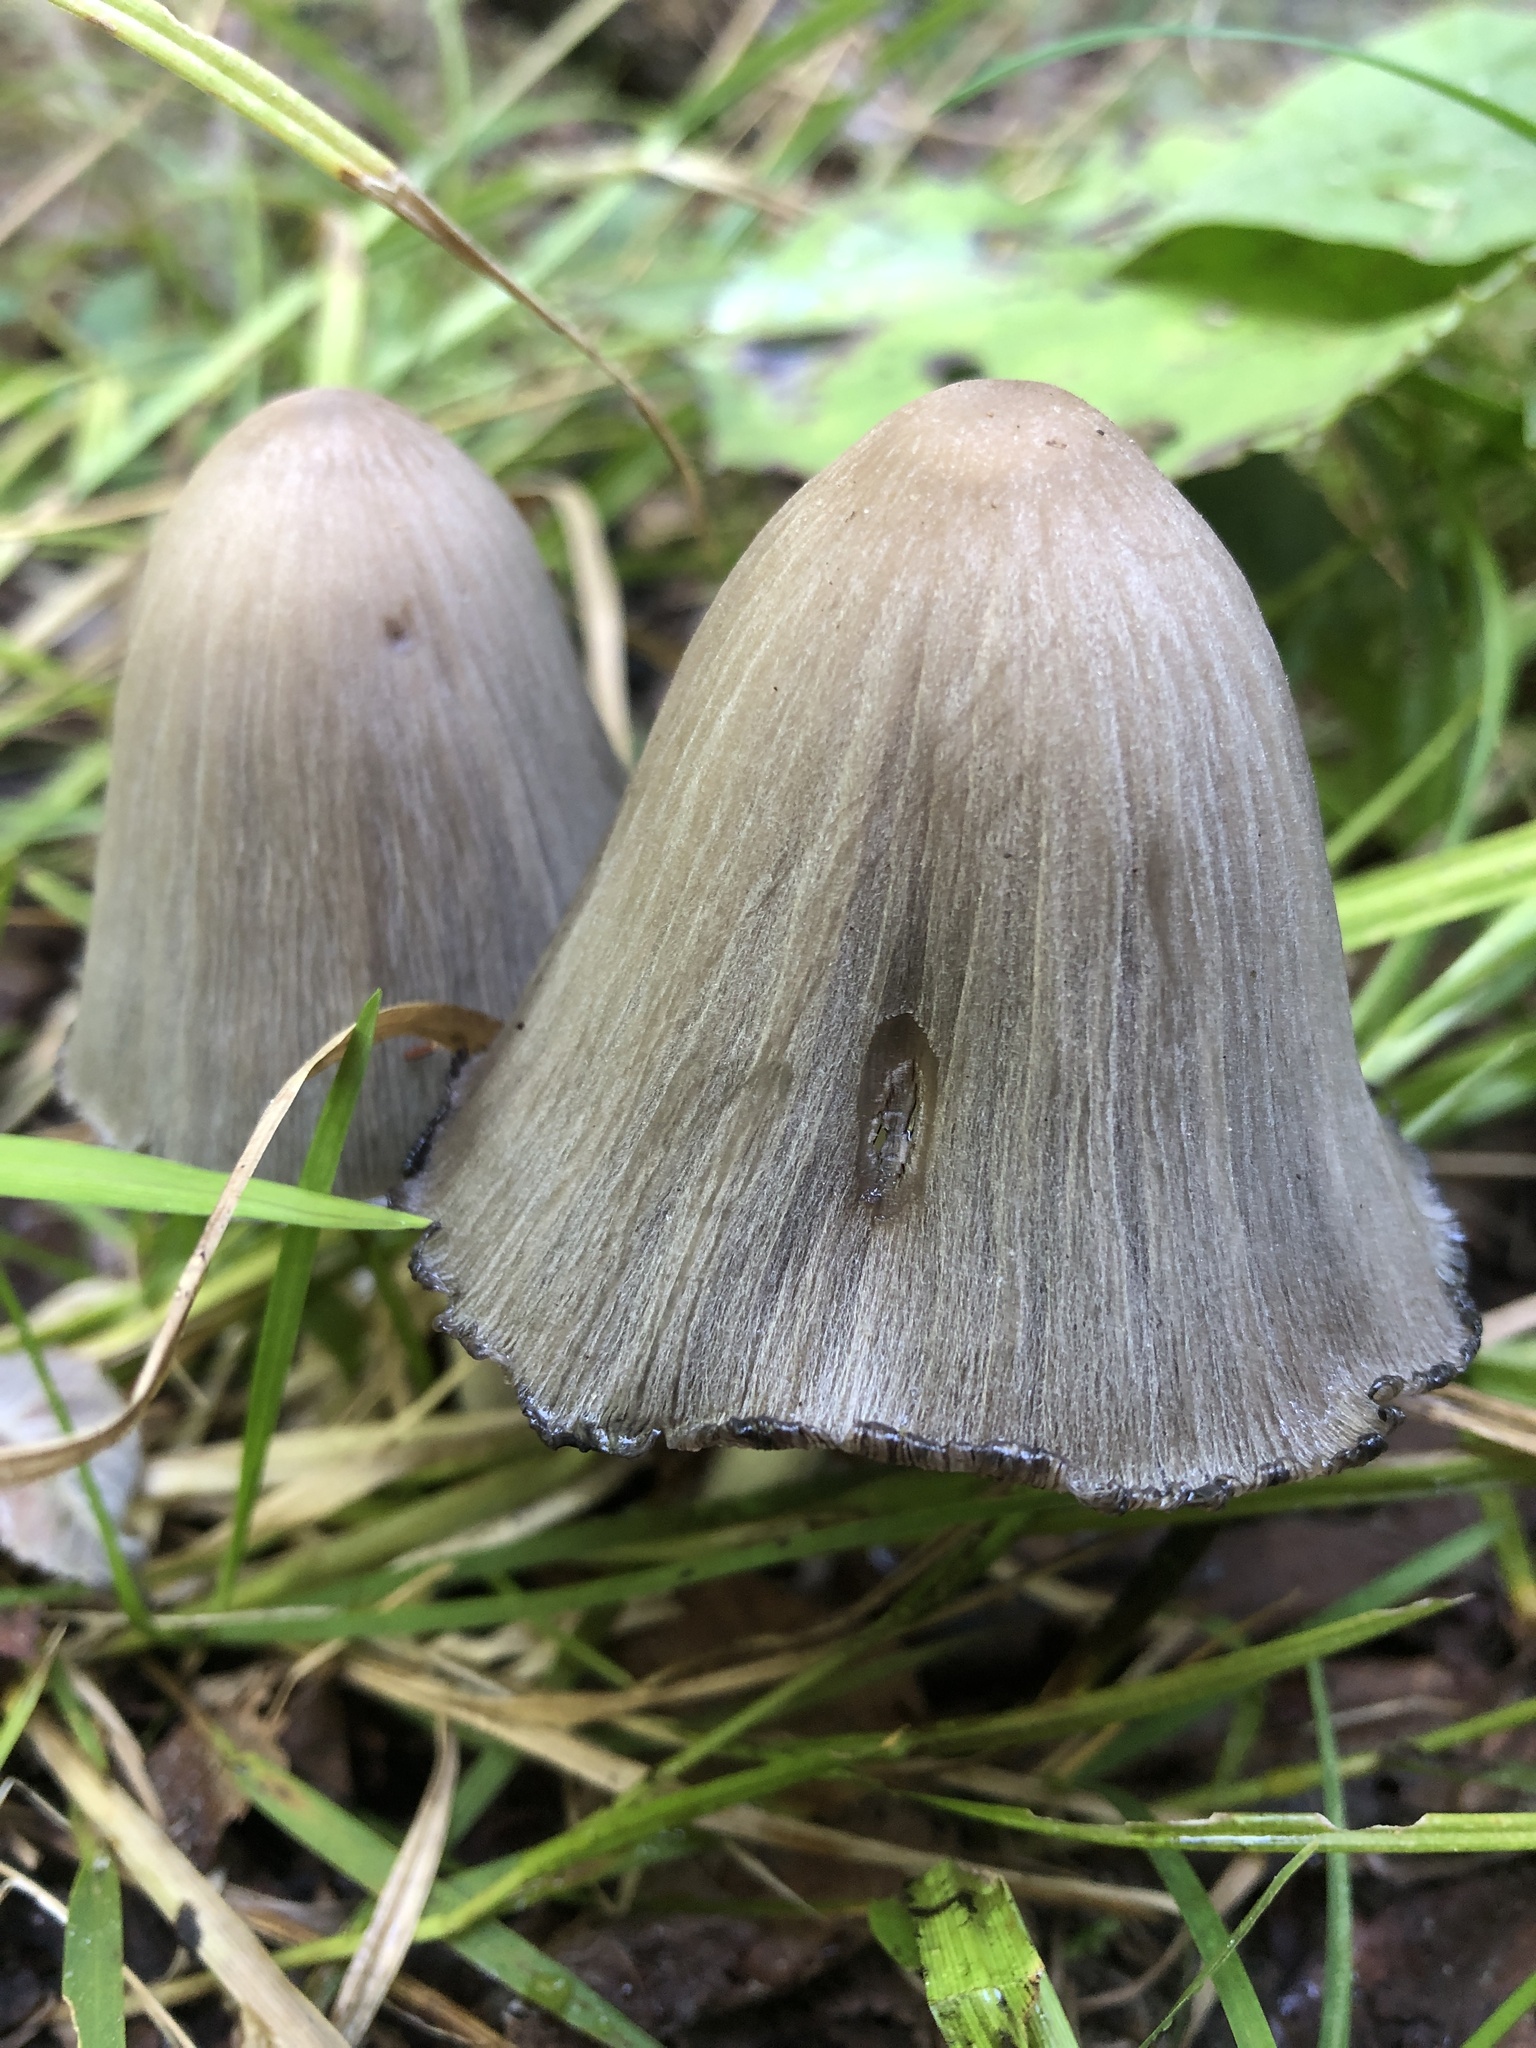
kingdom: Fungi
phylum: Basidiomycota
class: Agaricomycetes
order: Agaricales
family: Psathyrellaceae
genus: Coprinopsis
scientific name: Coprinopsis atramentaria
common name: Common ink-cap
